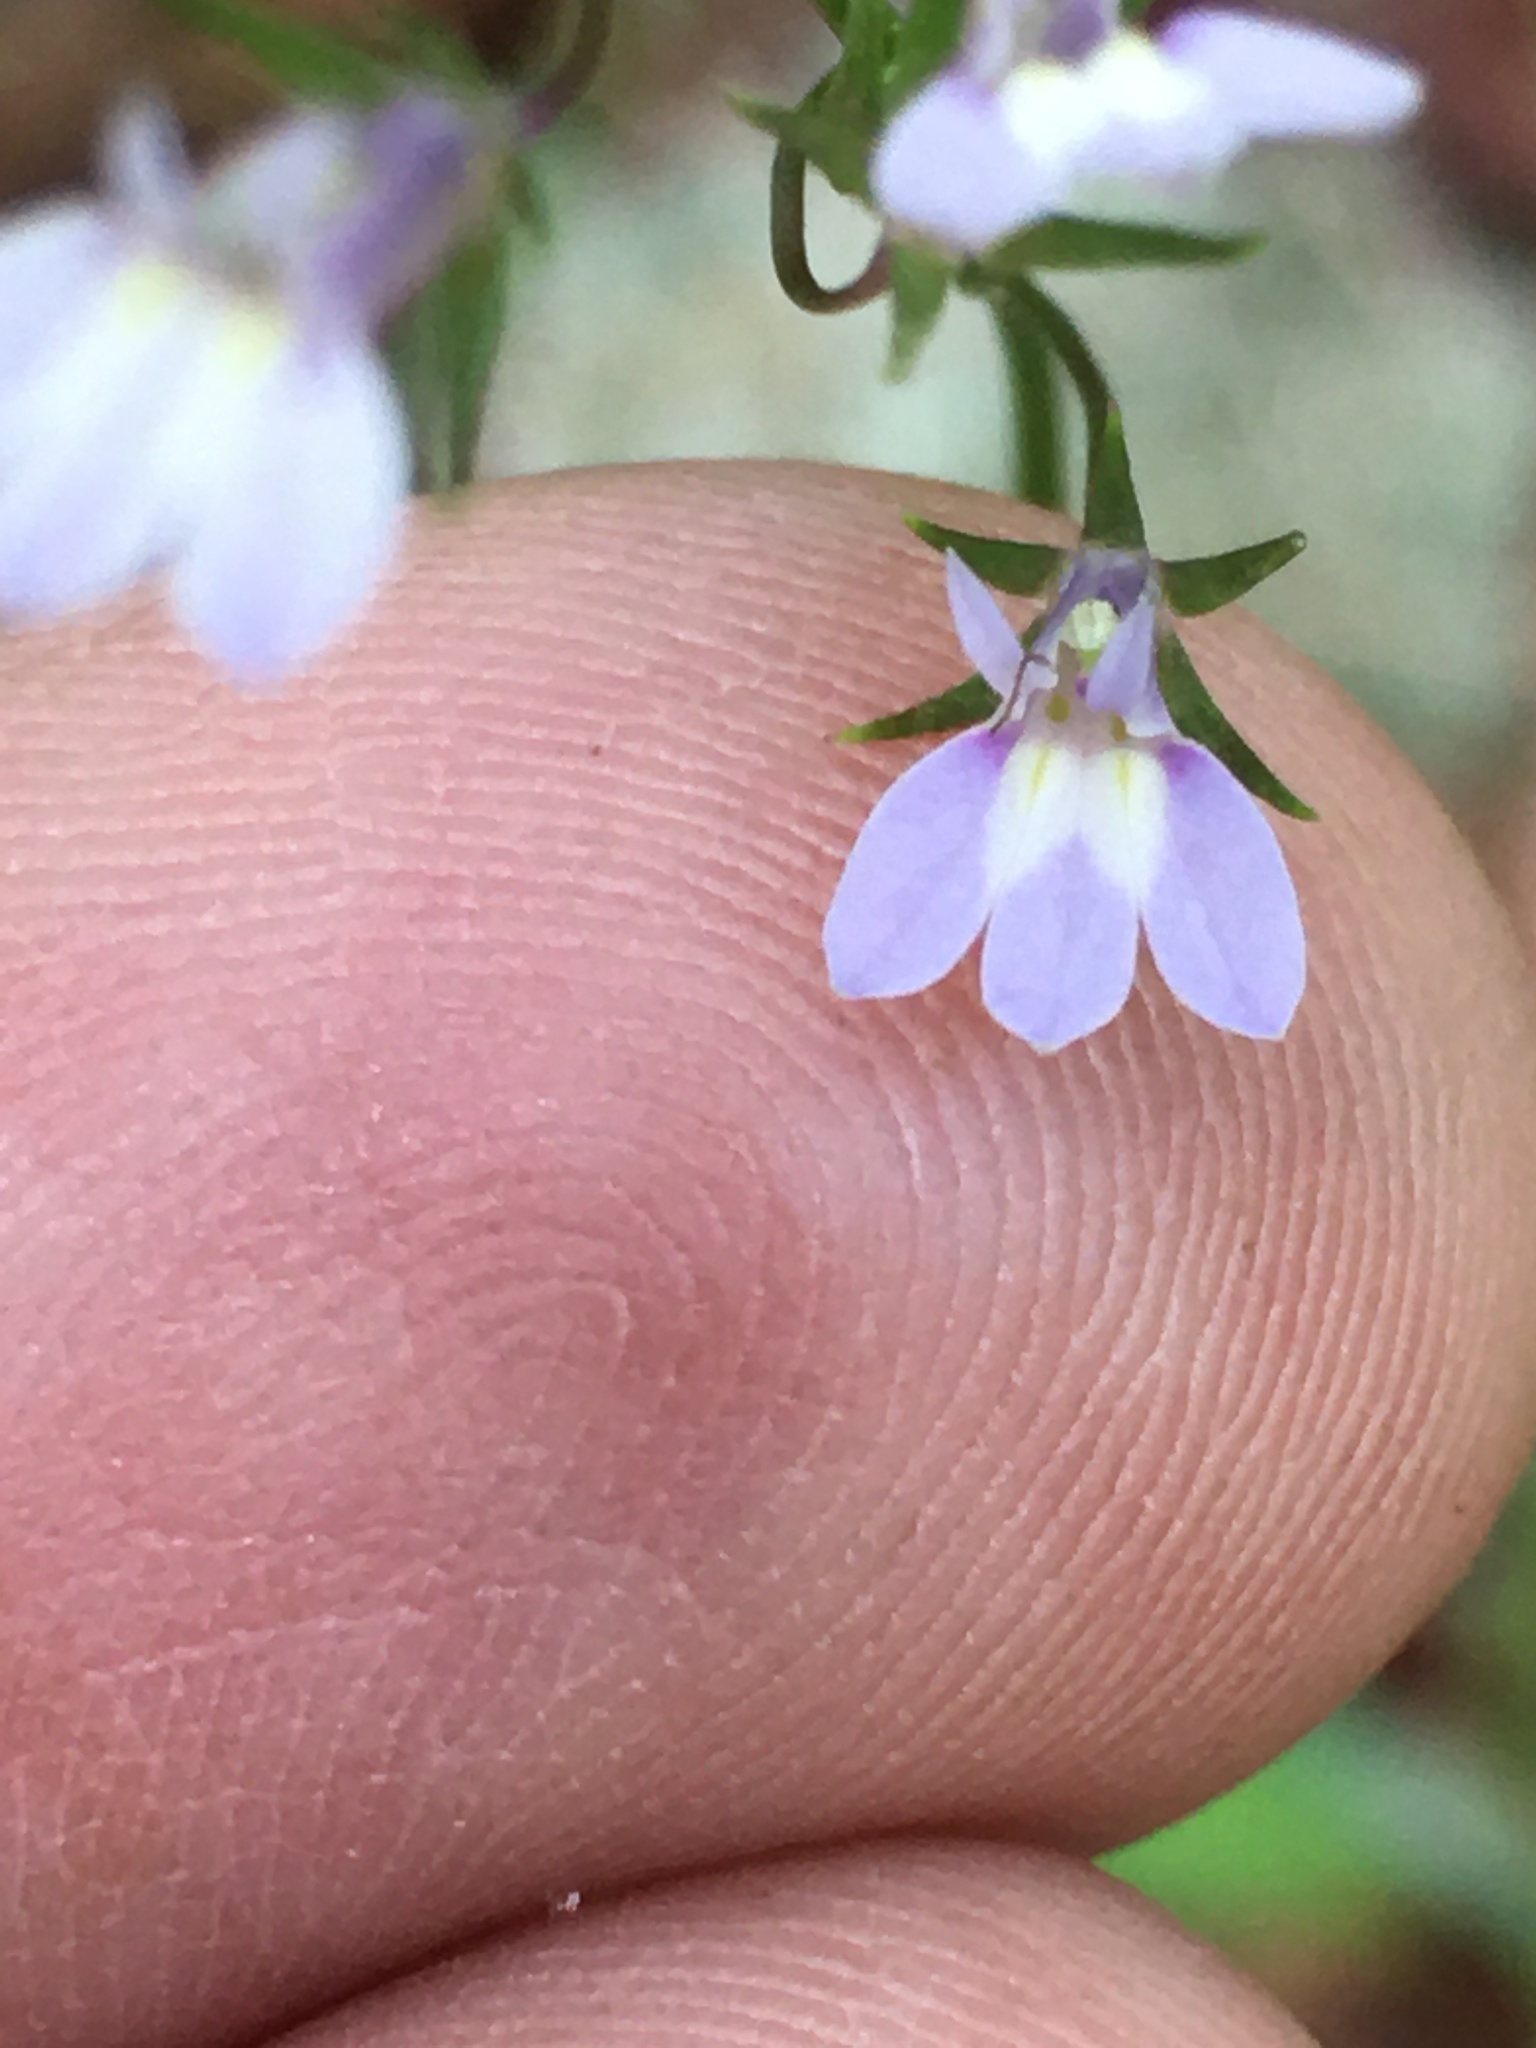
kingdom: Plantae
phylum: Tracheophyta
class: Magnoliopsida
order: Asterales
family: Campanulaceae
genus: Lobelia
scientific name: Lobelia nuttallii
